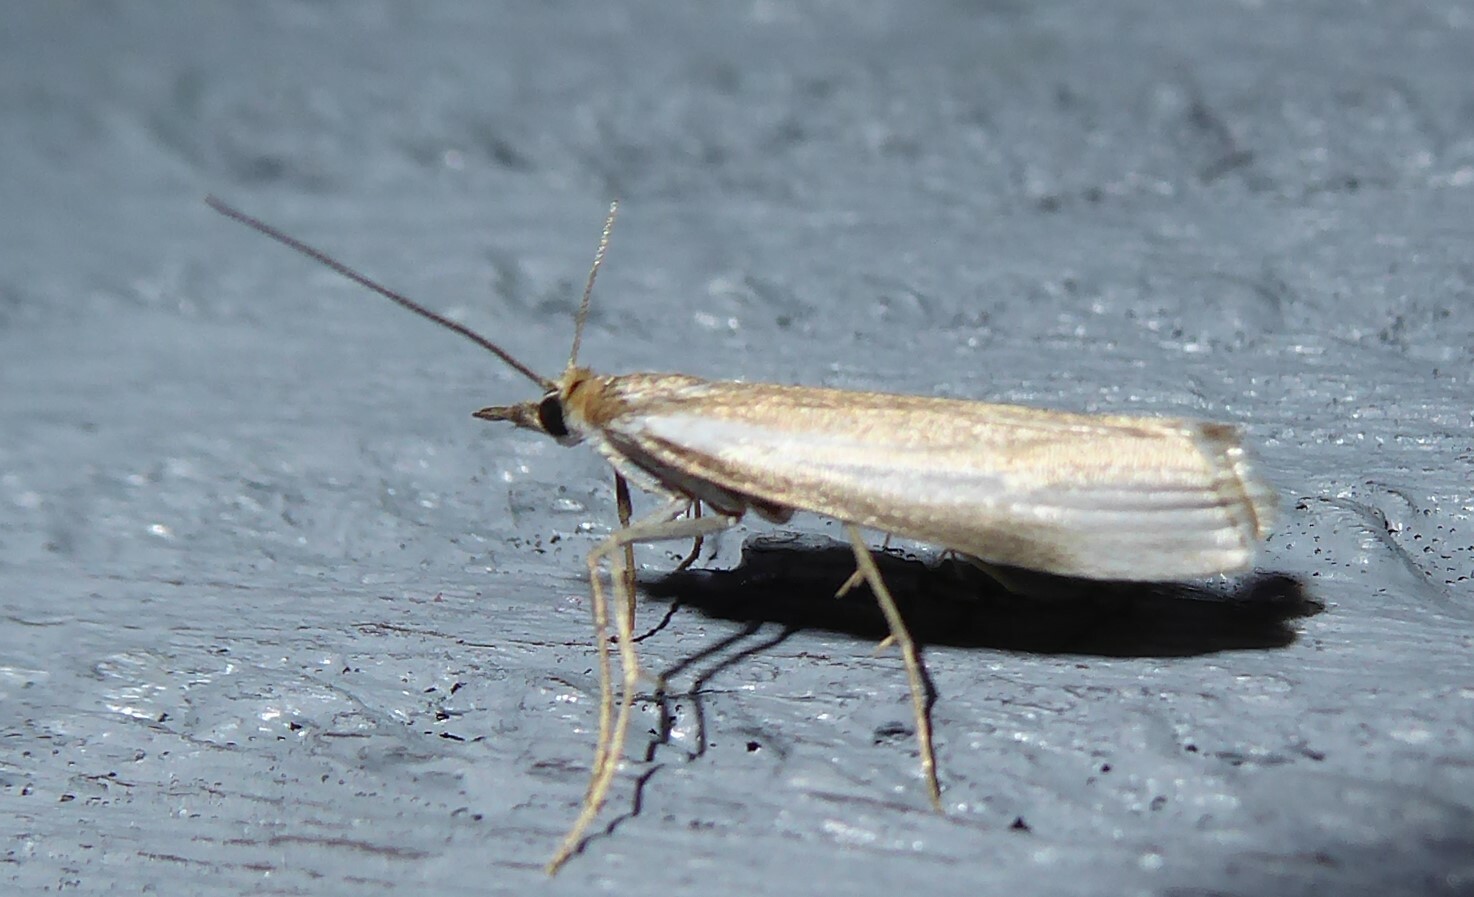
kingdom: Animalia
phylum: Arthropoda
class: Insecta
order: Lepidoptera
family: Crambidae
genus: Orocrambus
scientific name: Orocrambus vulgaris
